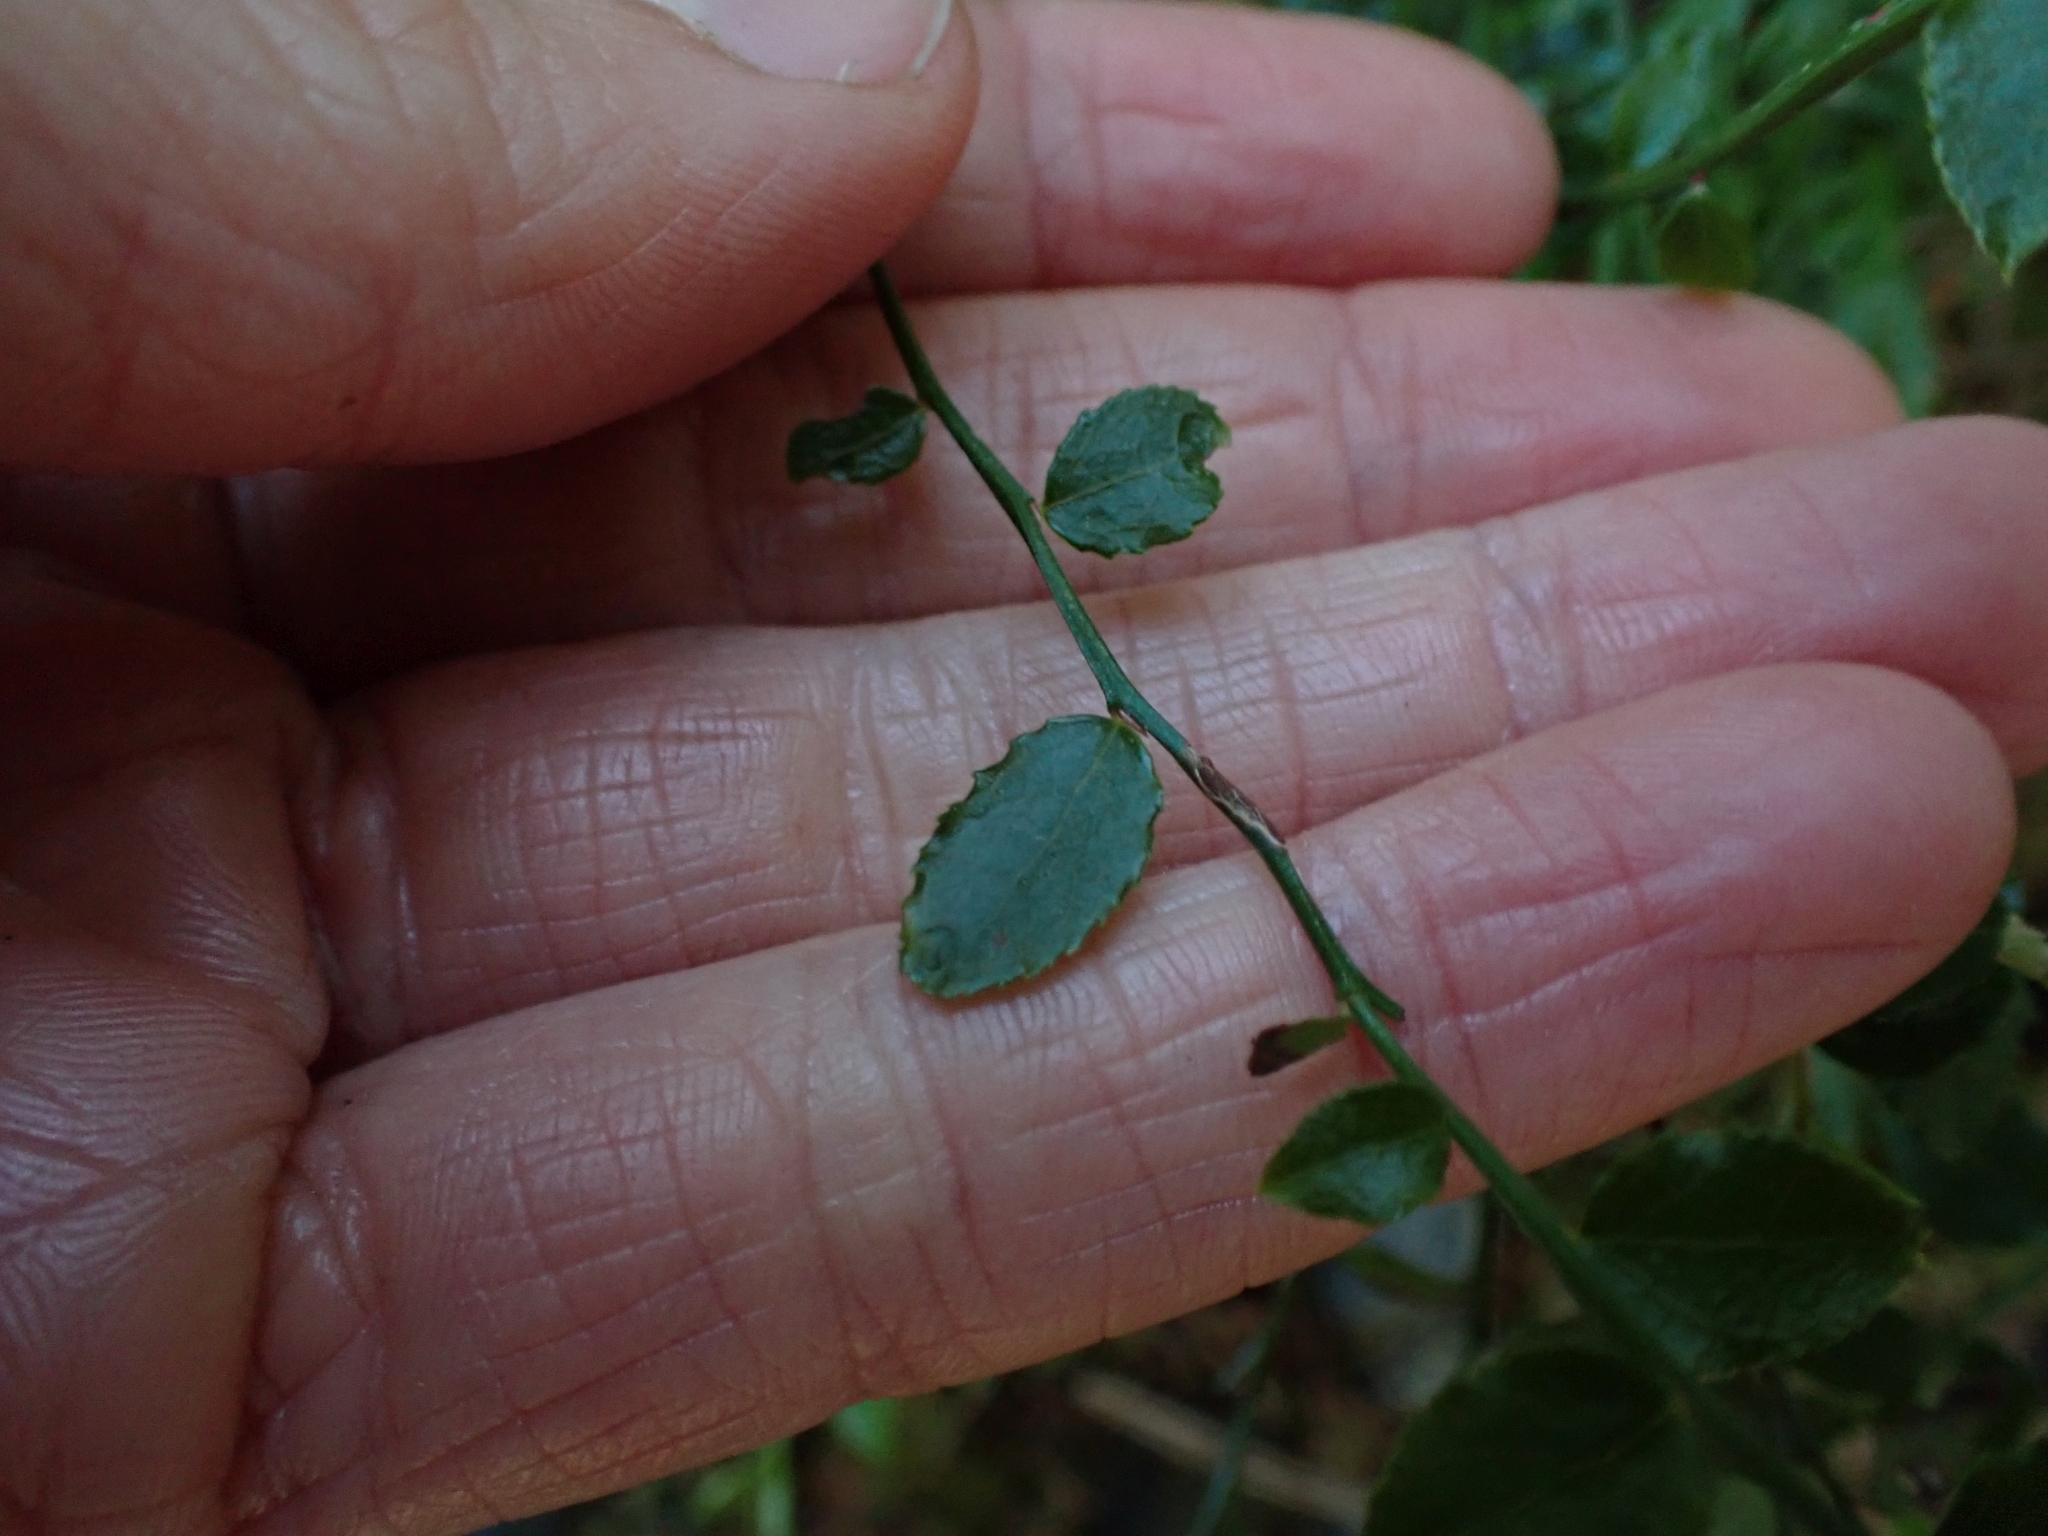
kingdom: Plantae
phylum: Tracheophyta
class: Magnoliopsida
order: Ericales
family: Ericaceae
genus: Vaccinium
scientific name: Vaccinium parvifolium
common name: Red-huckleberry
